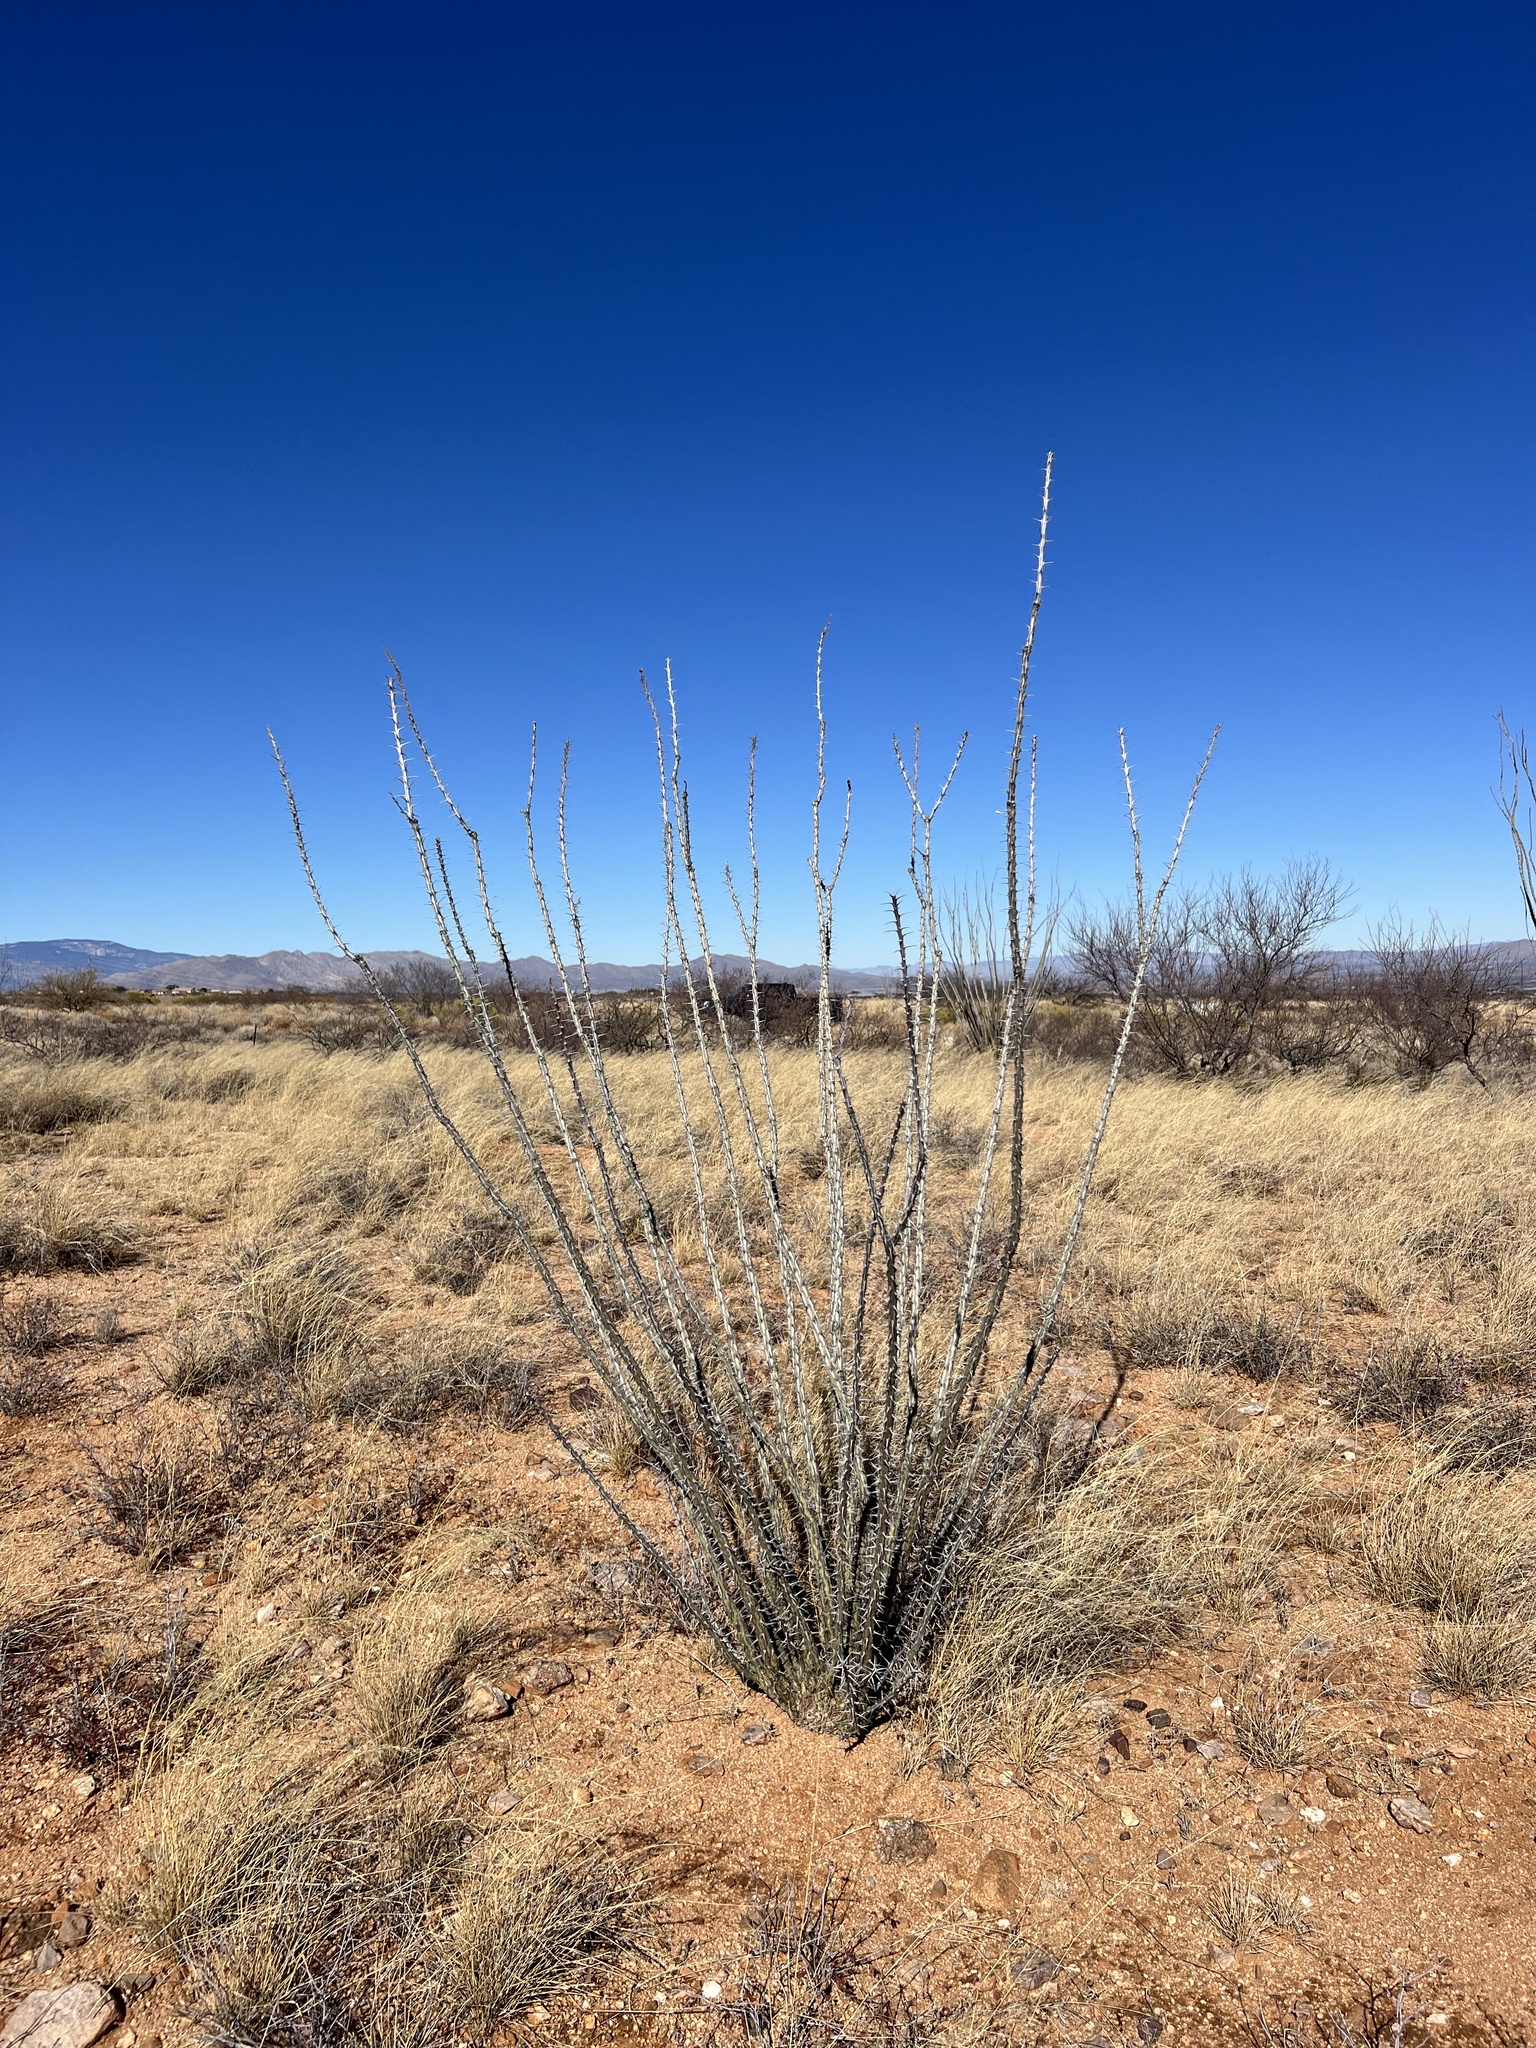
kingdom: Plantae
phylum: Tracheophyta
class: Magnoliopsida
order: Ericales
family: Fouquieriaceae
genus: Fouquieria
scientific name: Fouquieria splendens
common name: Vine-cactus
